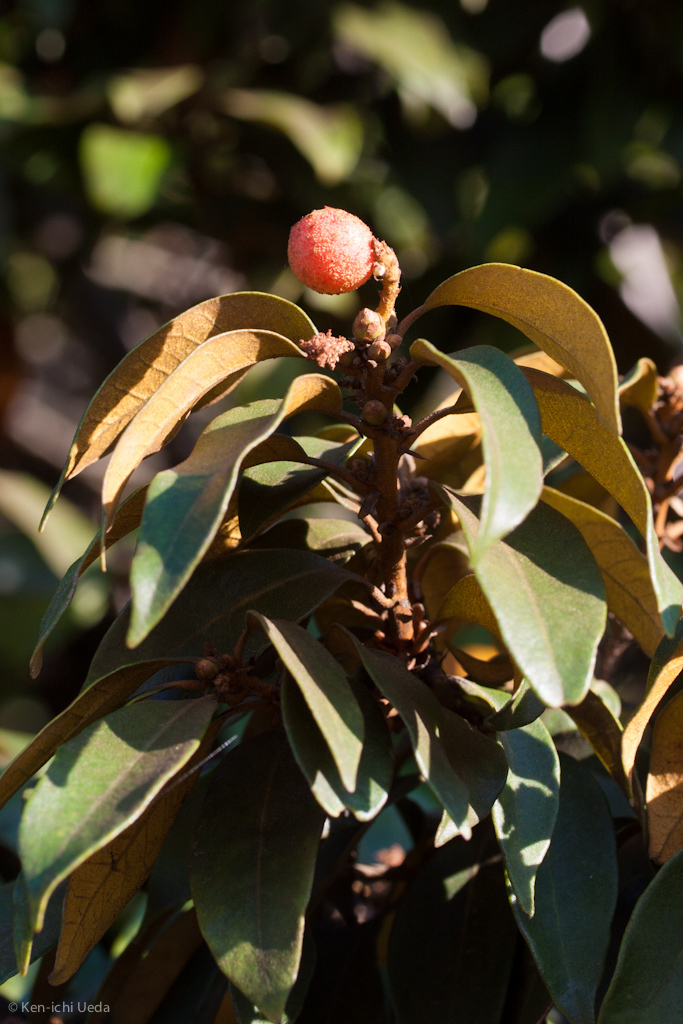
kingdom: Animalia
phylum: Arthropoda
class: Insecta
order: Hymenoptera
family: Cynipidae
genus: Synergus
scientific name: Synergus castanopsidis
